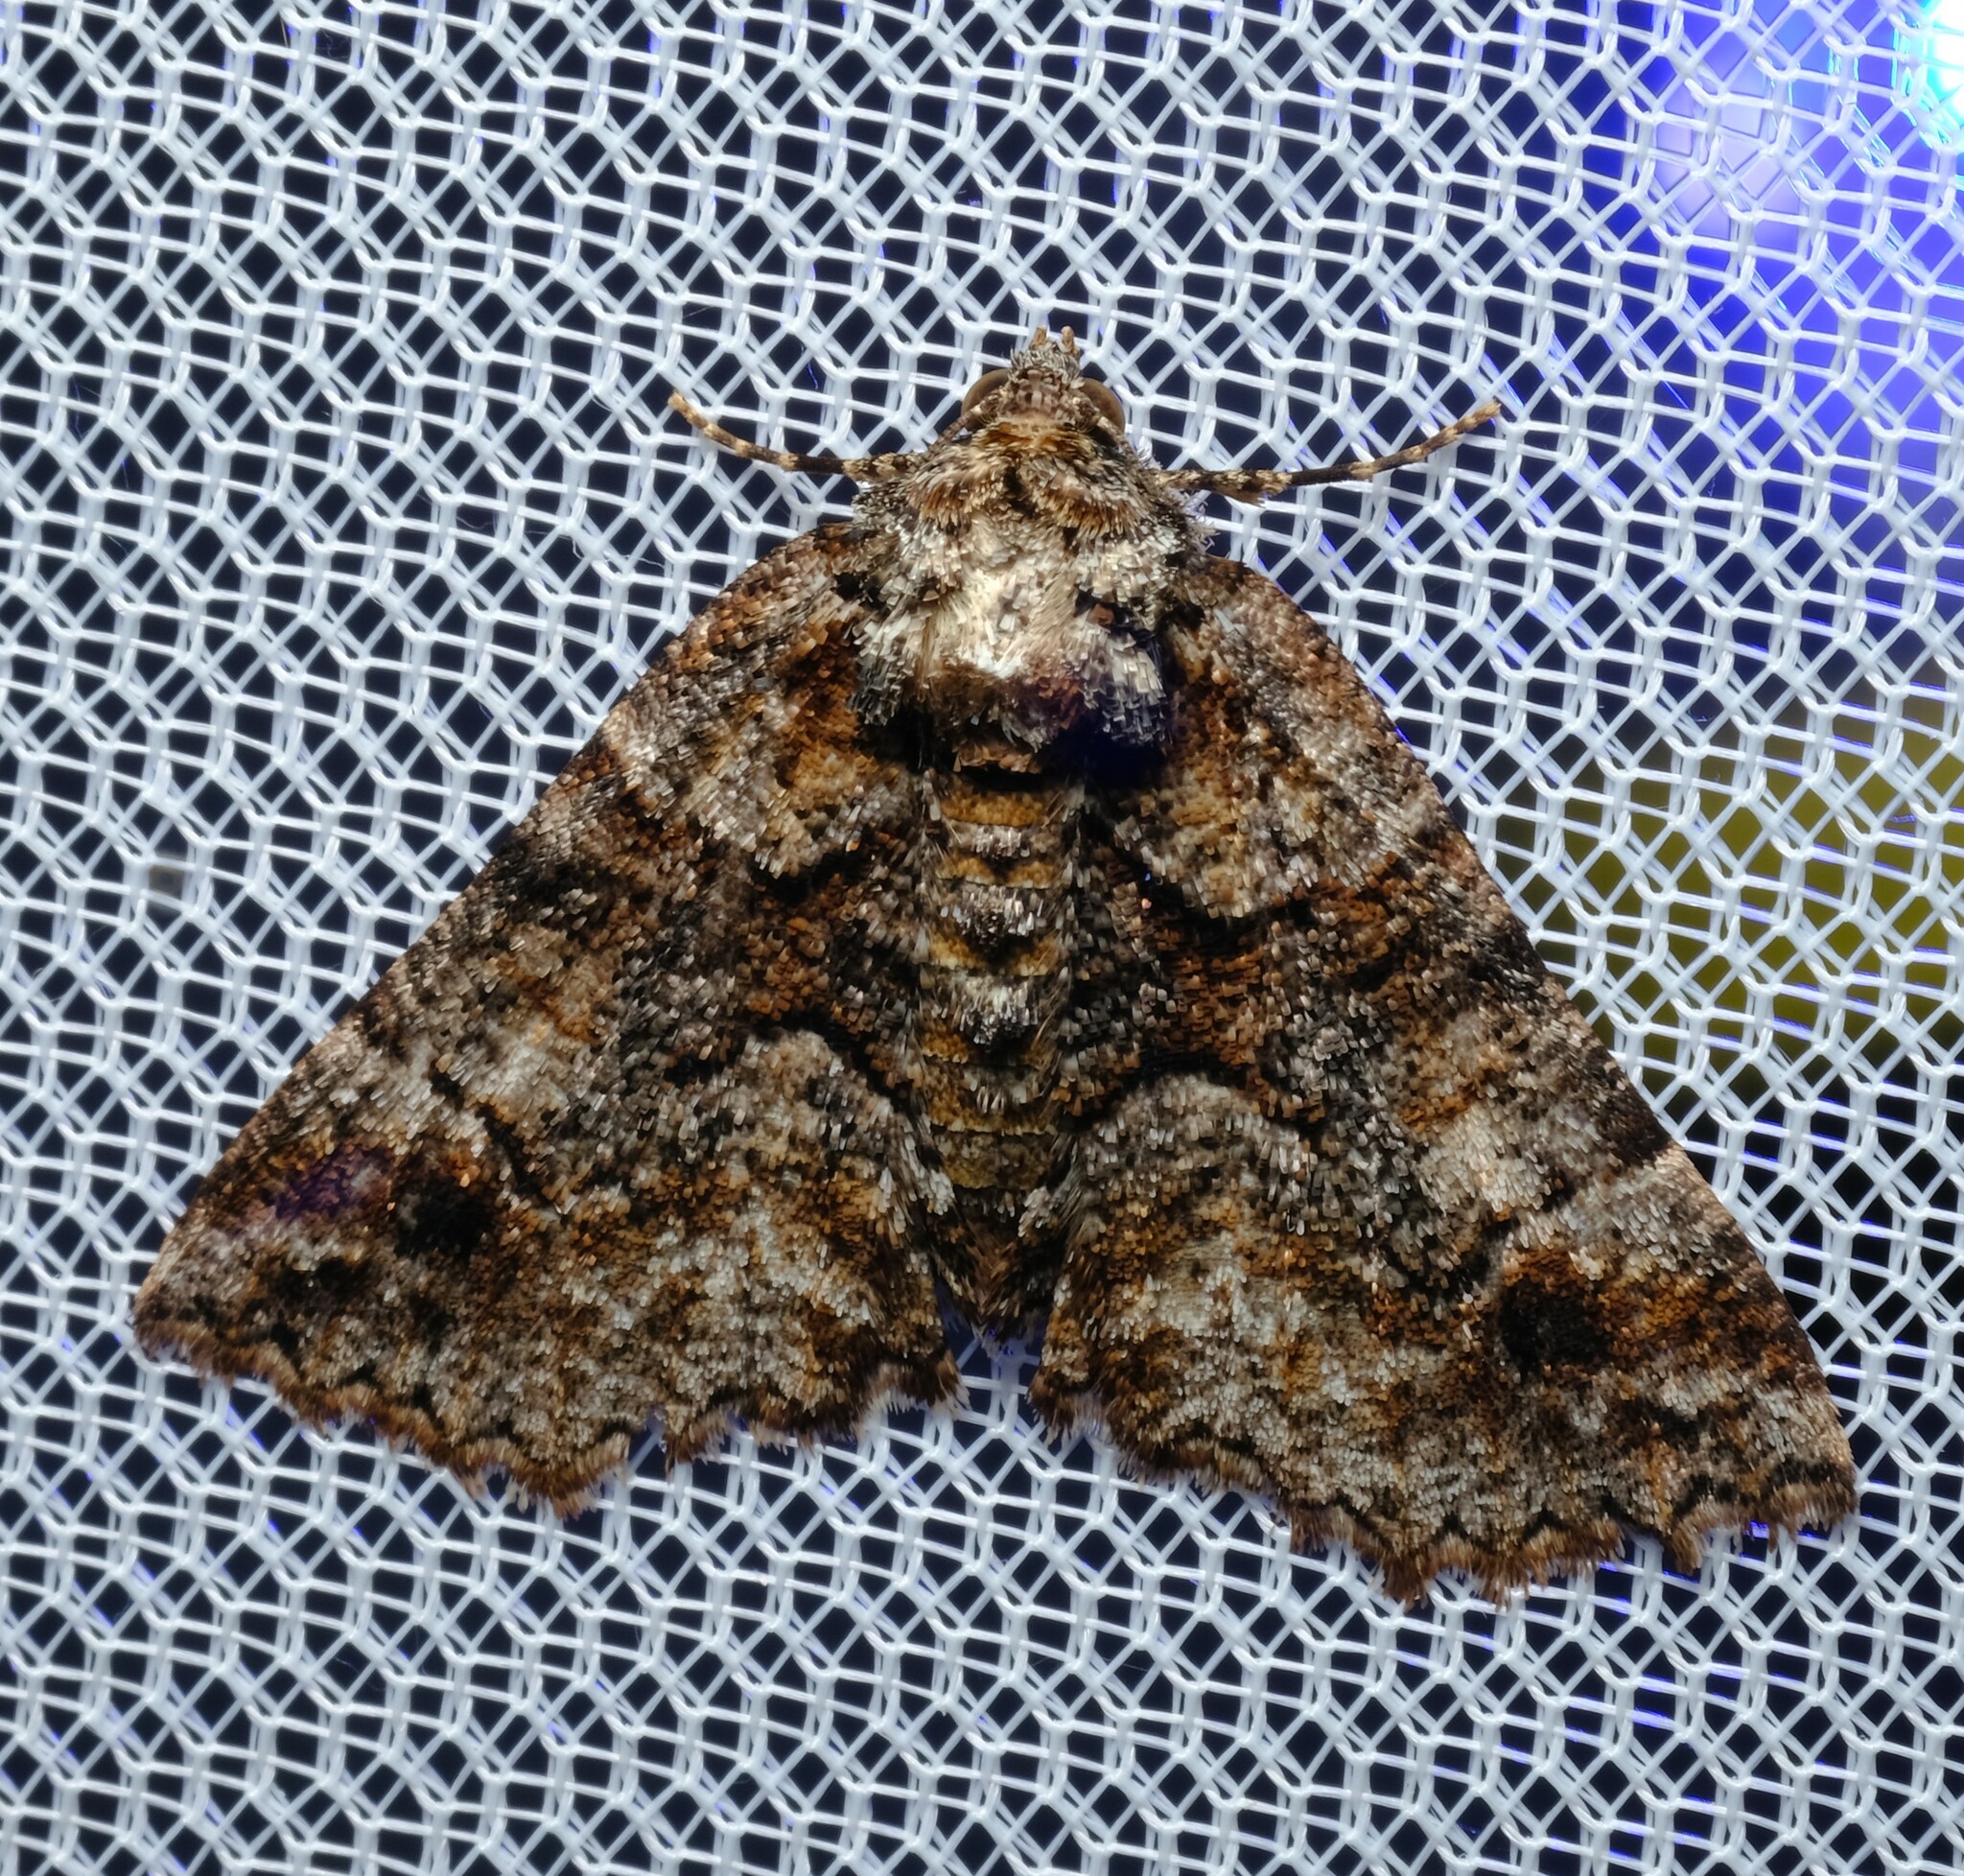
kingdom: Animalia
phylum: Arthropoda
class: Insecta
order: Lepidoptera
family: Geometridae
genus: Gastrina
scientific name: Gastrina cristaria
